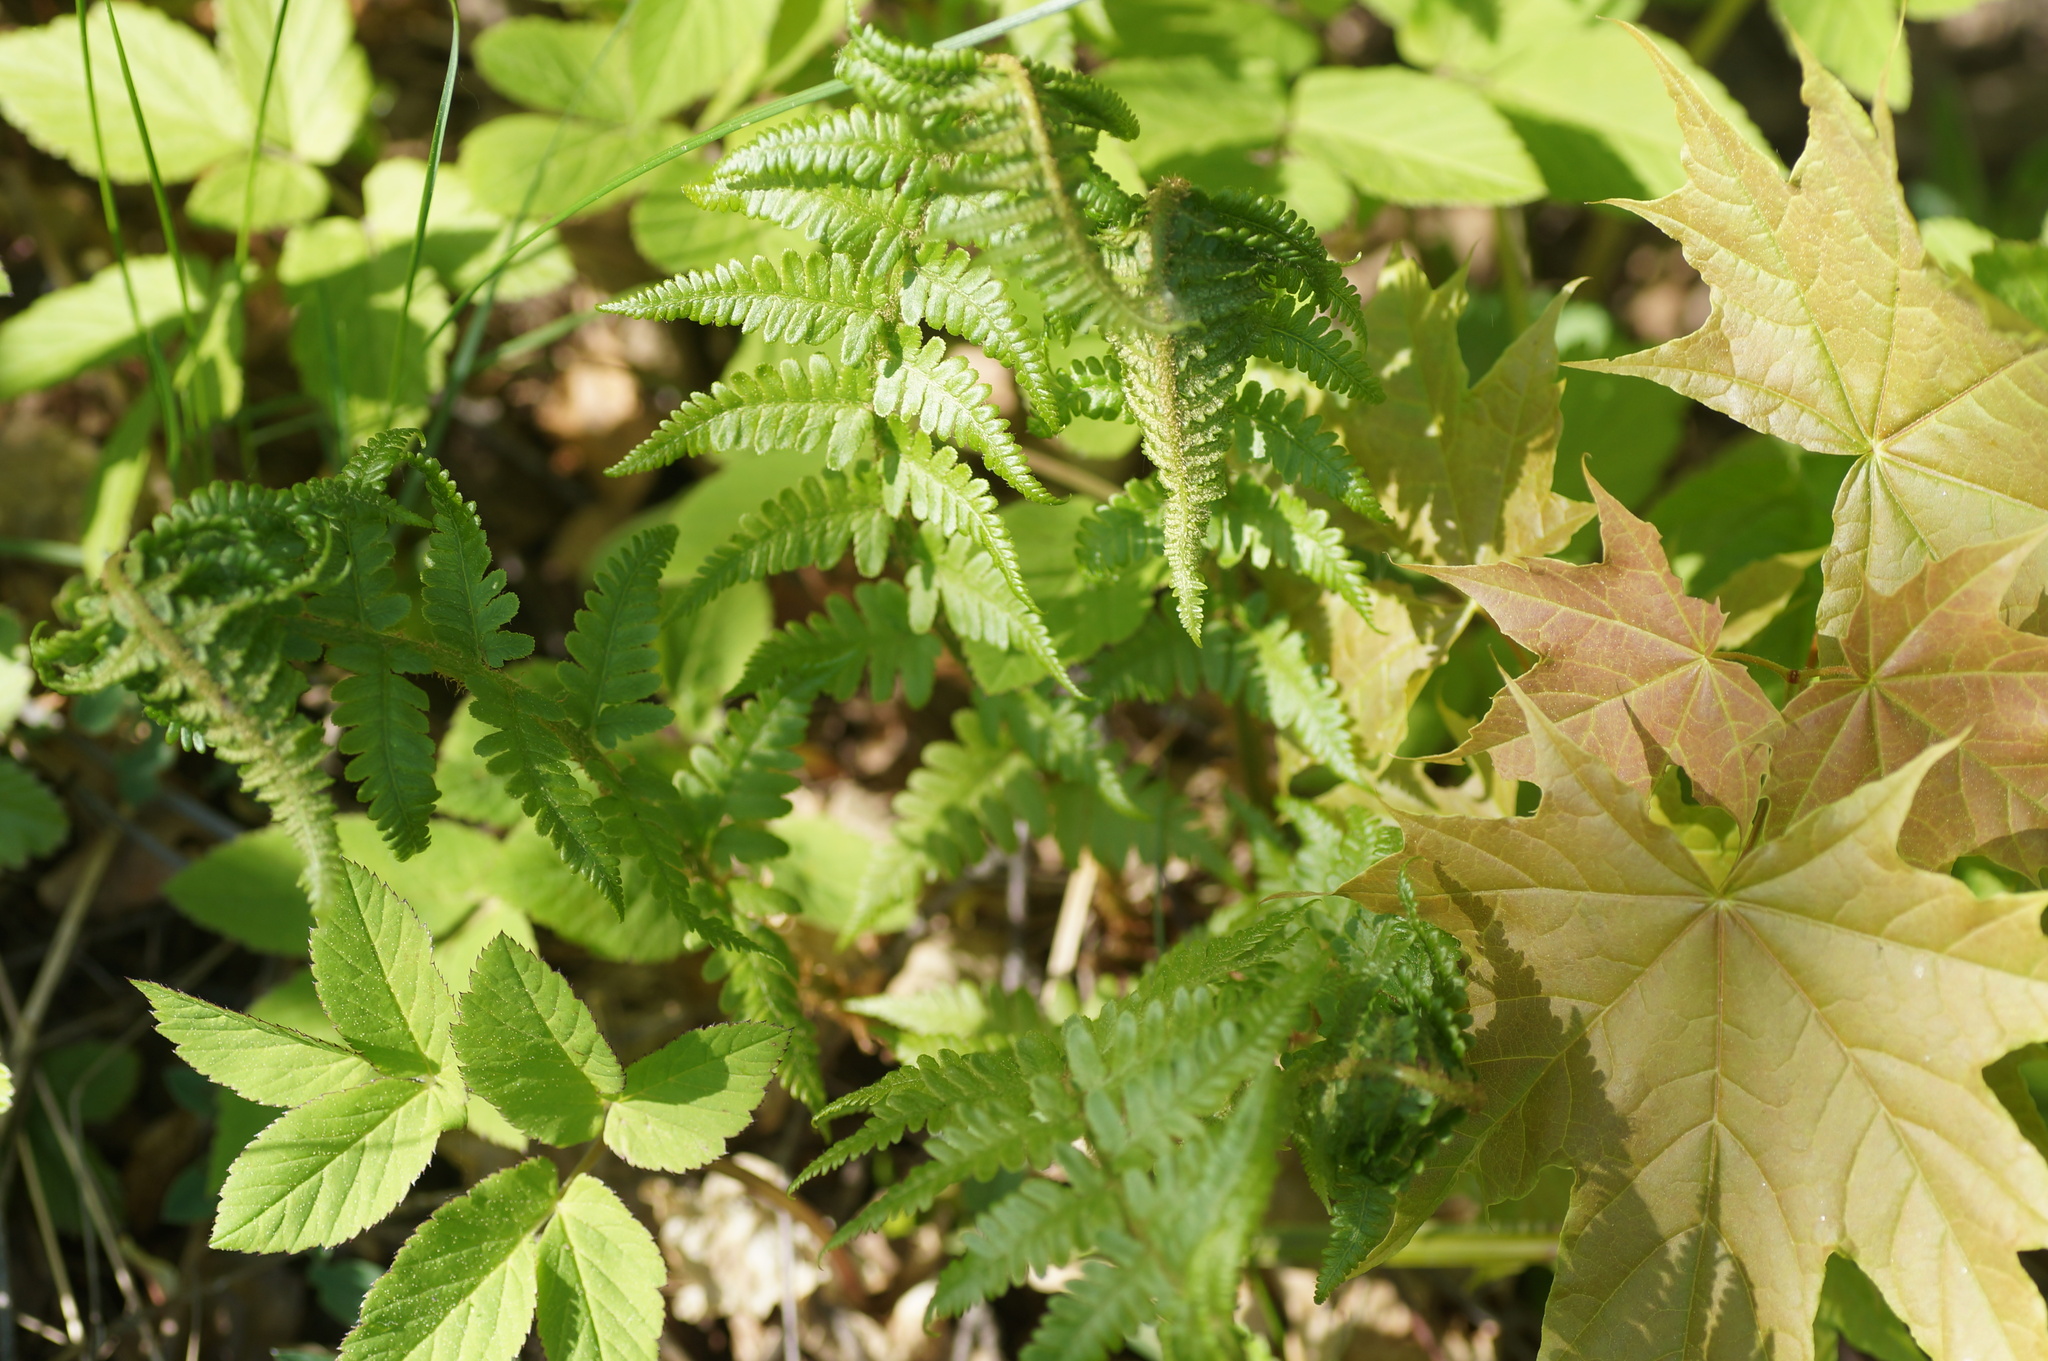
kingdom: Plantae
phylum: Tracheophyta
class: Polypodiopsida
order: Polypodiales
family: Dryopteridaceae
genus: Dryopteris
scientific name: Dryopteris filix-mas
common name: Male fern
